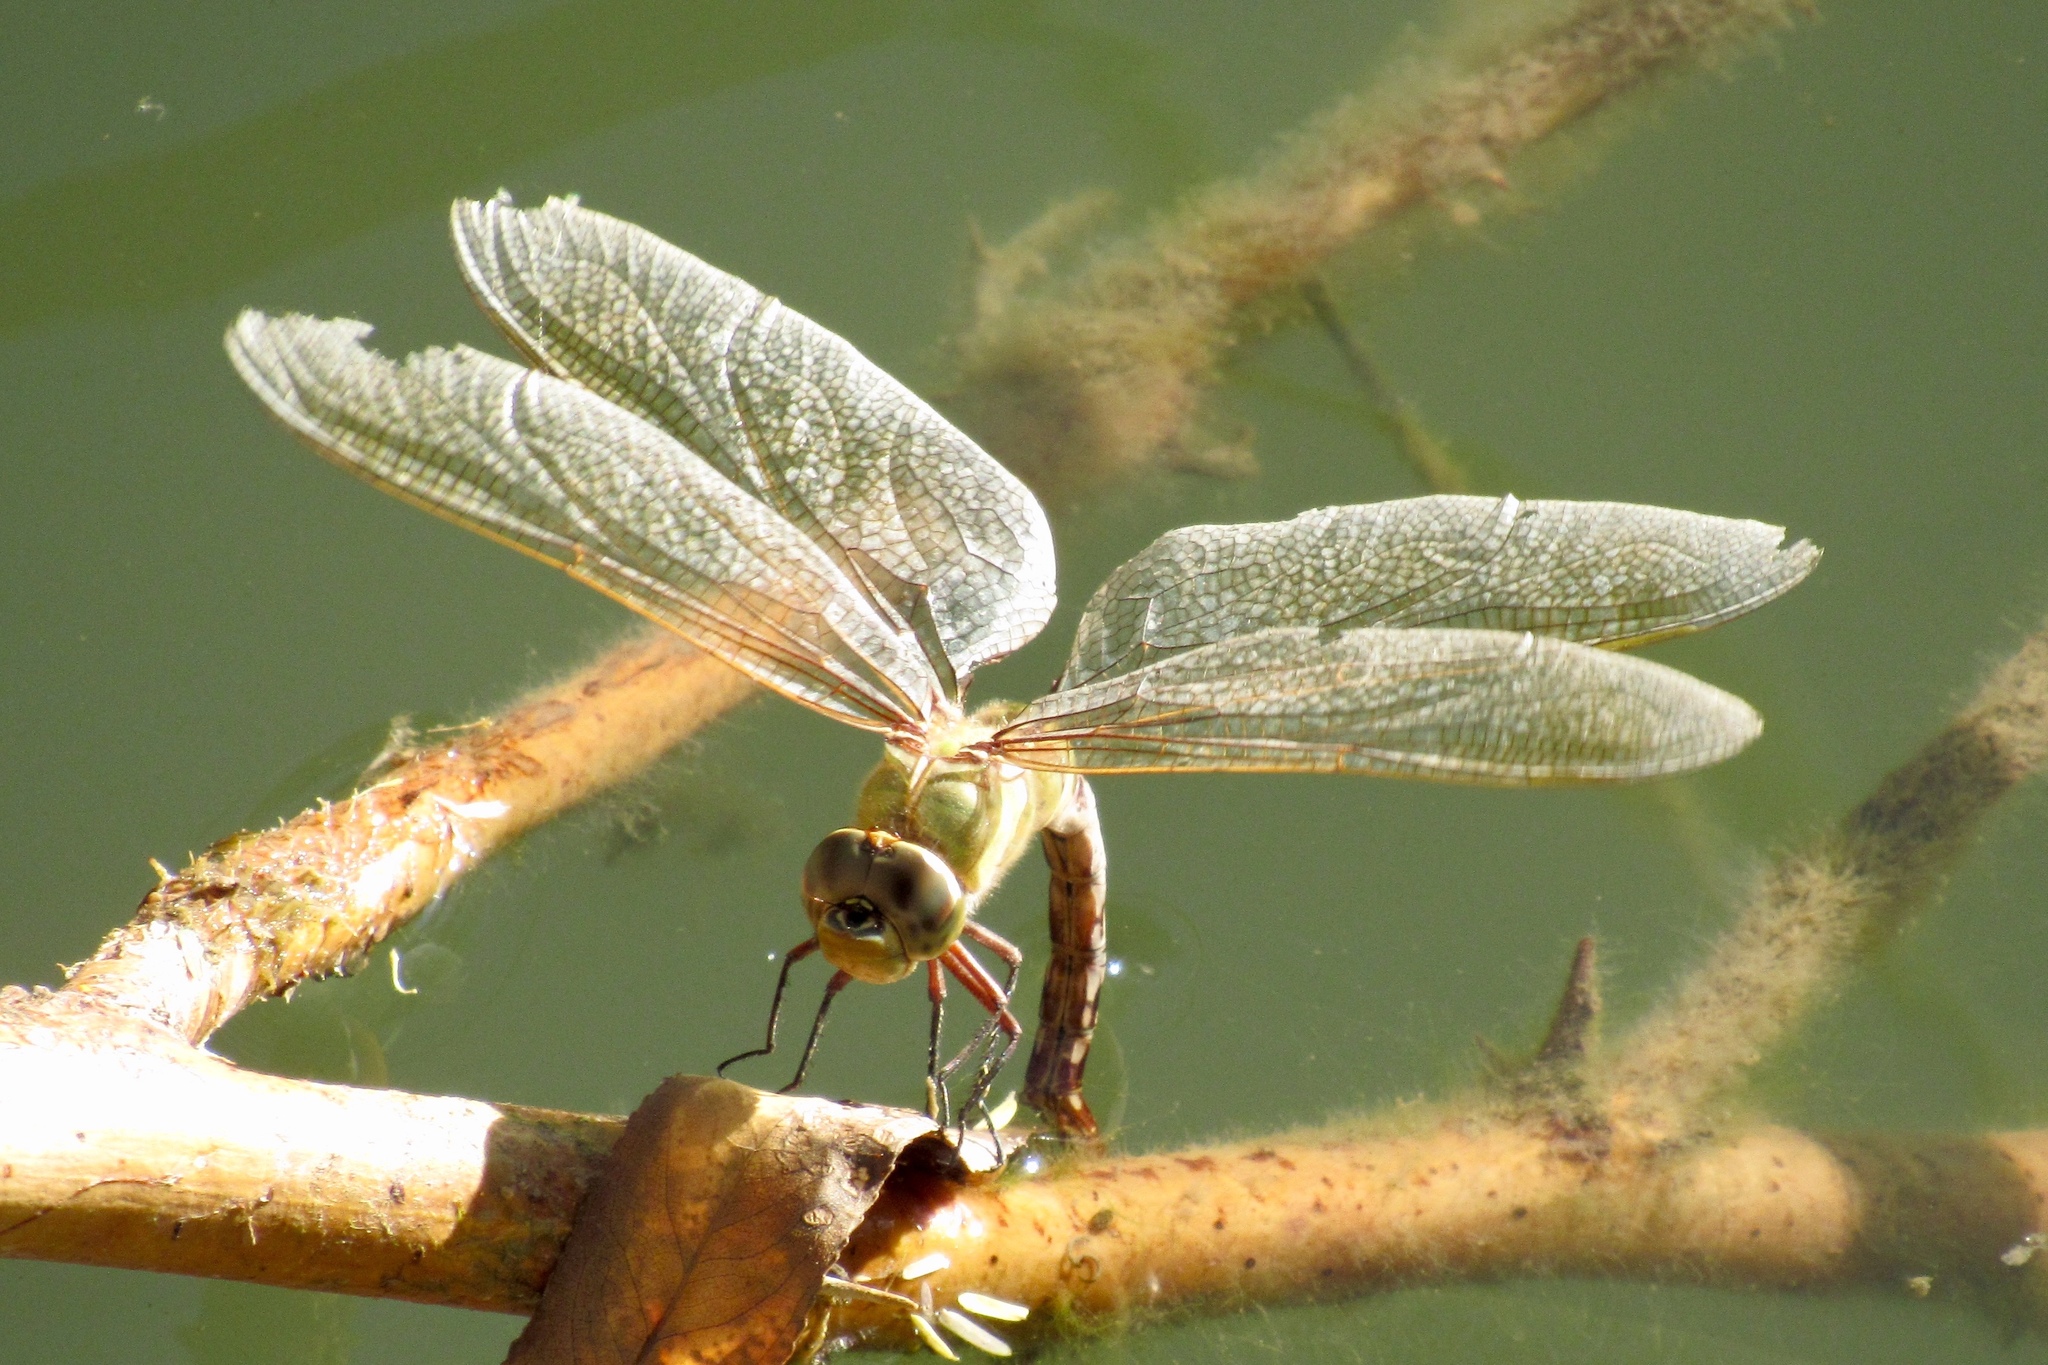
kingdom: Animalia
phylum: Arthropoda
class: Insecta
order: Odonata
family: Aeshnidae
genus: Anax
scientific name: Anax junius
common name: Common green darner
